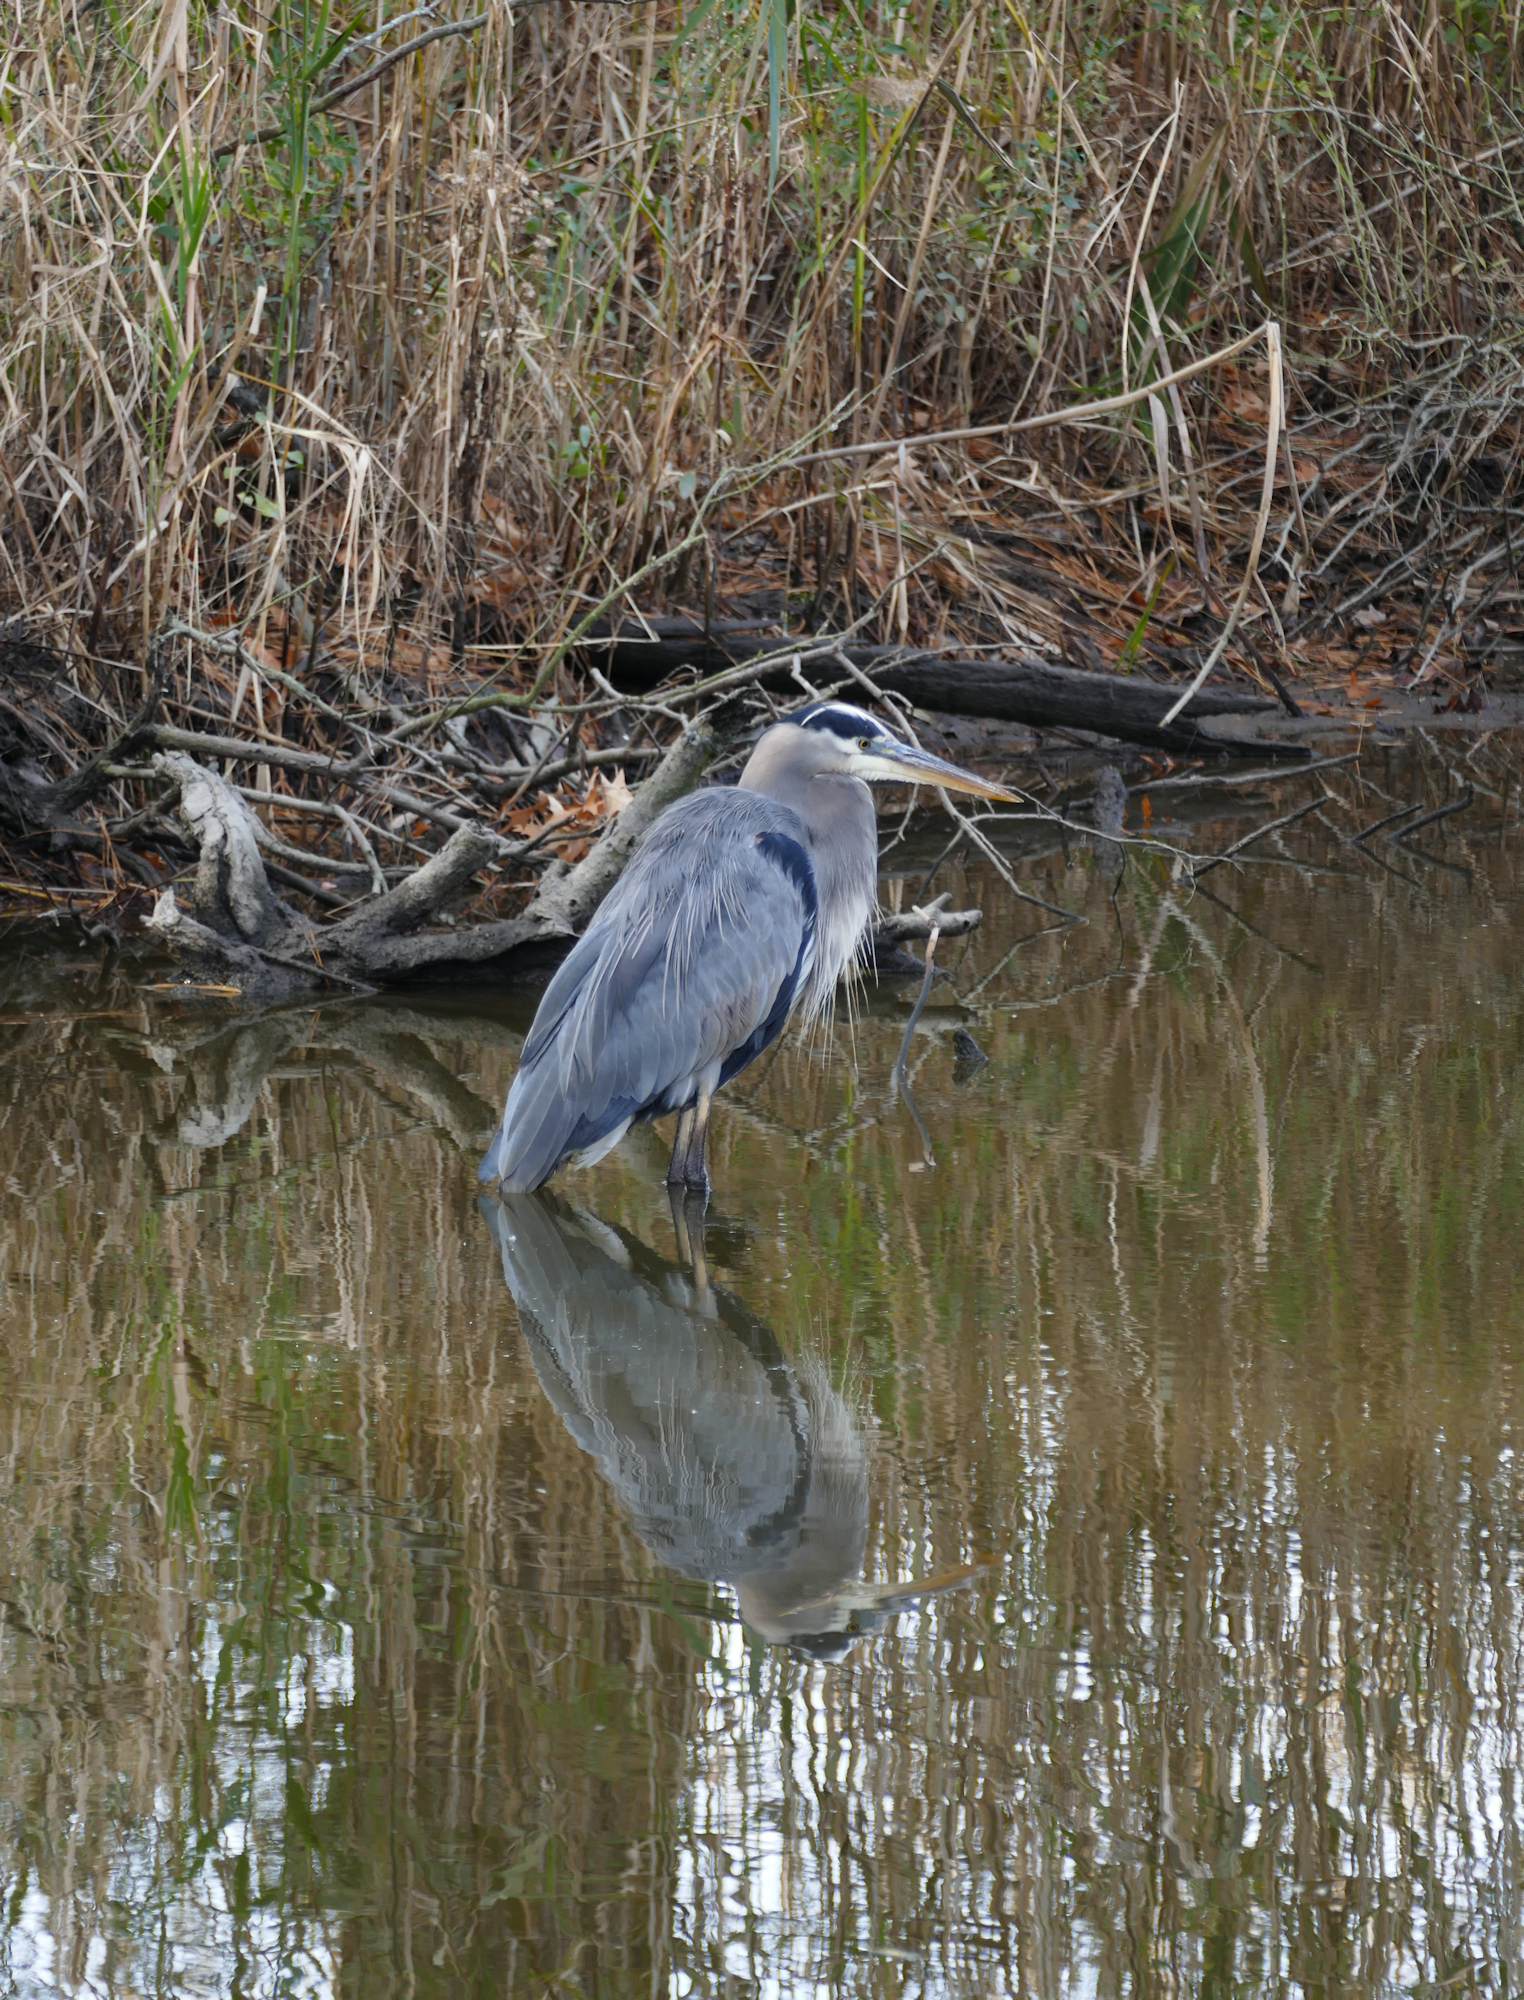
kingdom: Animalia
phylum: Chordata
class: Aves
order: Pelecaniformes
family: Ardeidae
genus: Ardea
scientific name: Ardea herodias
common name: Great blue heron
